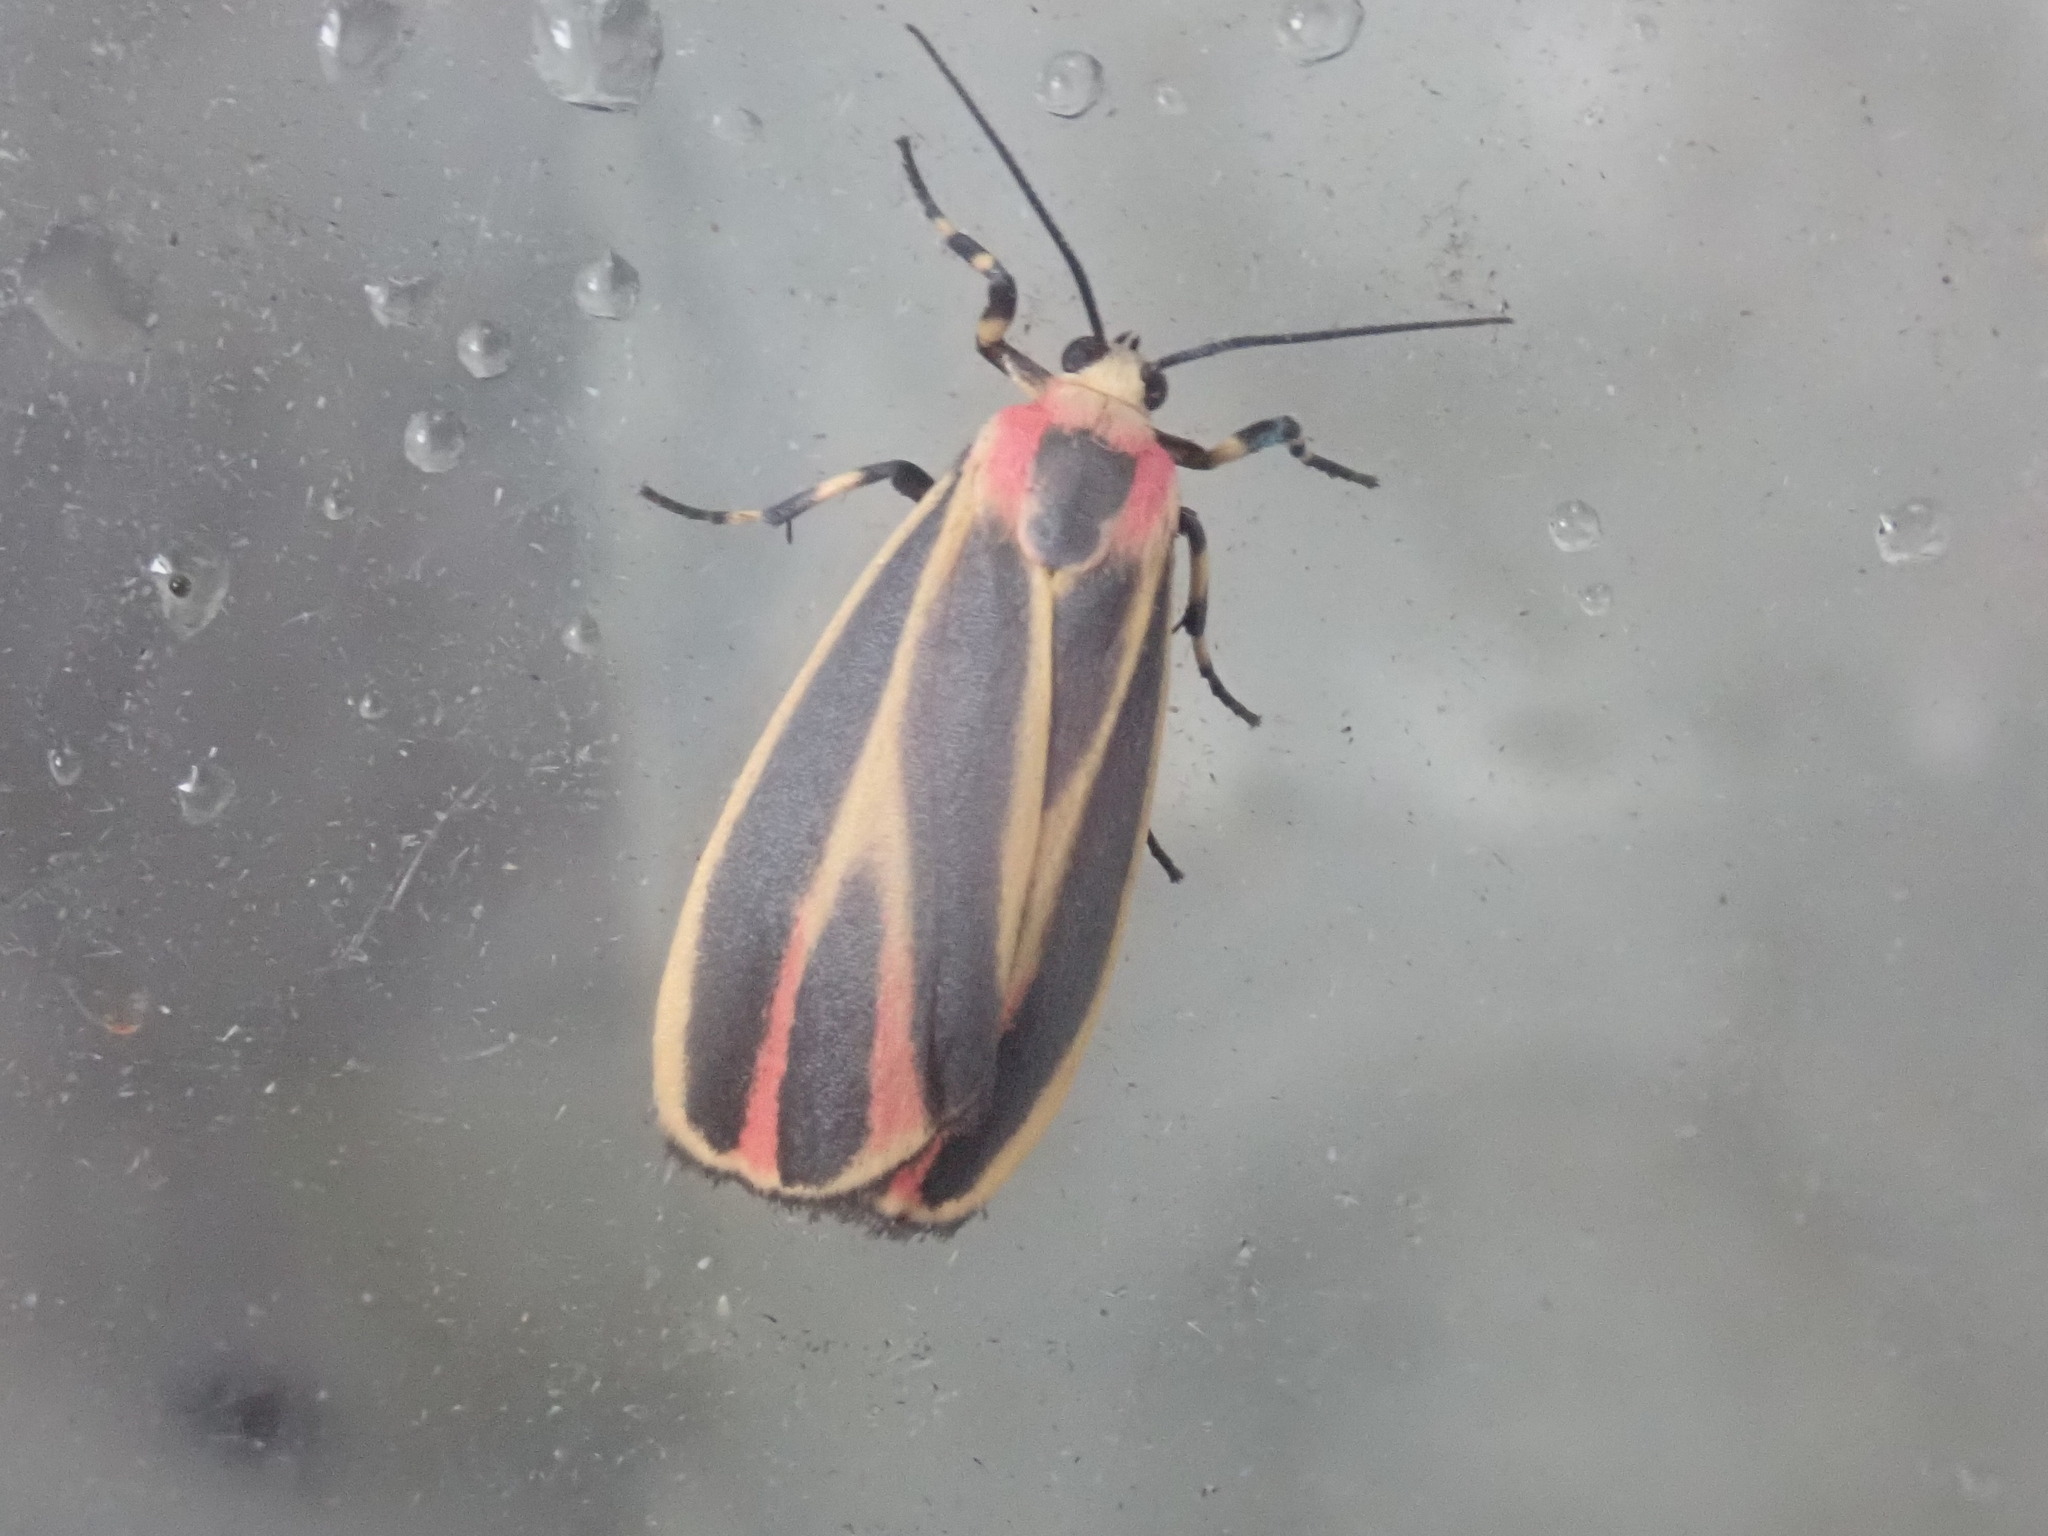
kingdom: Animalia
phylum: Arthropoda
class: Insecta
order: Lepidoptera
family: Erebidae
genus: Hypoprepia
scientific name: Hypoprepia fucosa
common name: Painted lichen moth
